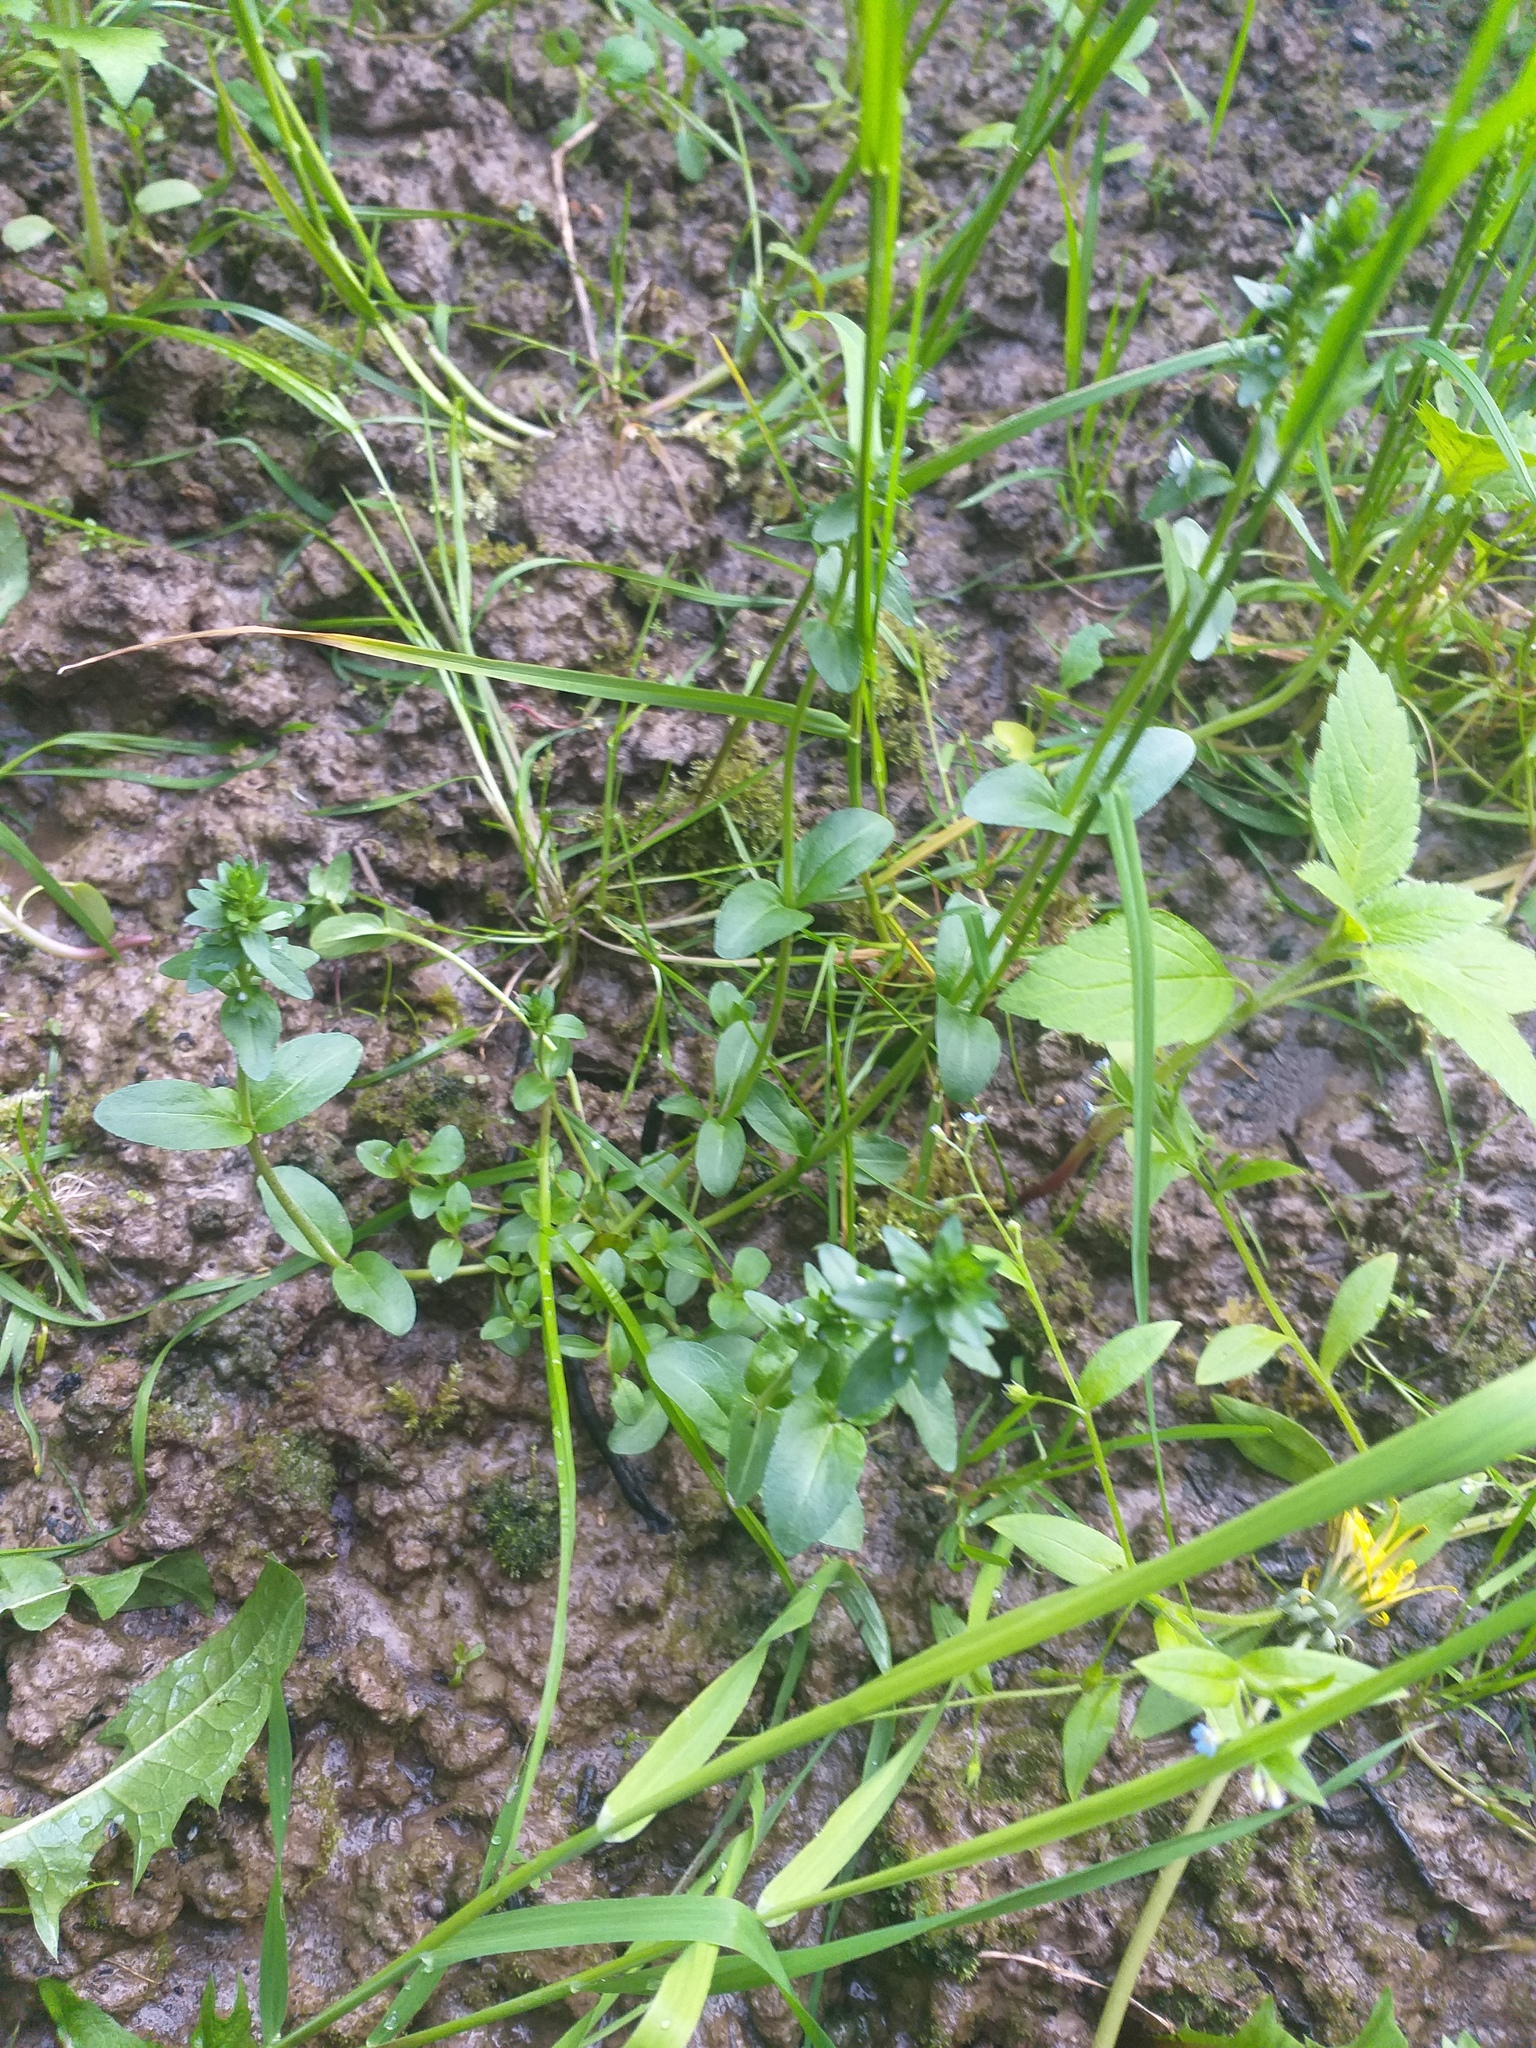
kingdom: Plantae
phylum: Tracheophyta
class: Magnoliopsida
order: Lamiales
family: Plantaginaceae
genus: Veronica
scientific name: Veronica serpyllifolia
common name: Thyme-leaved speedwell
